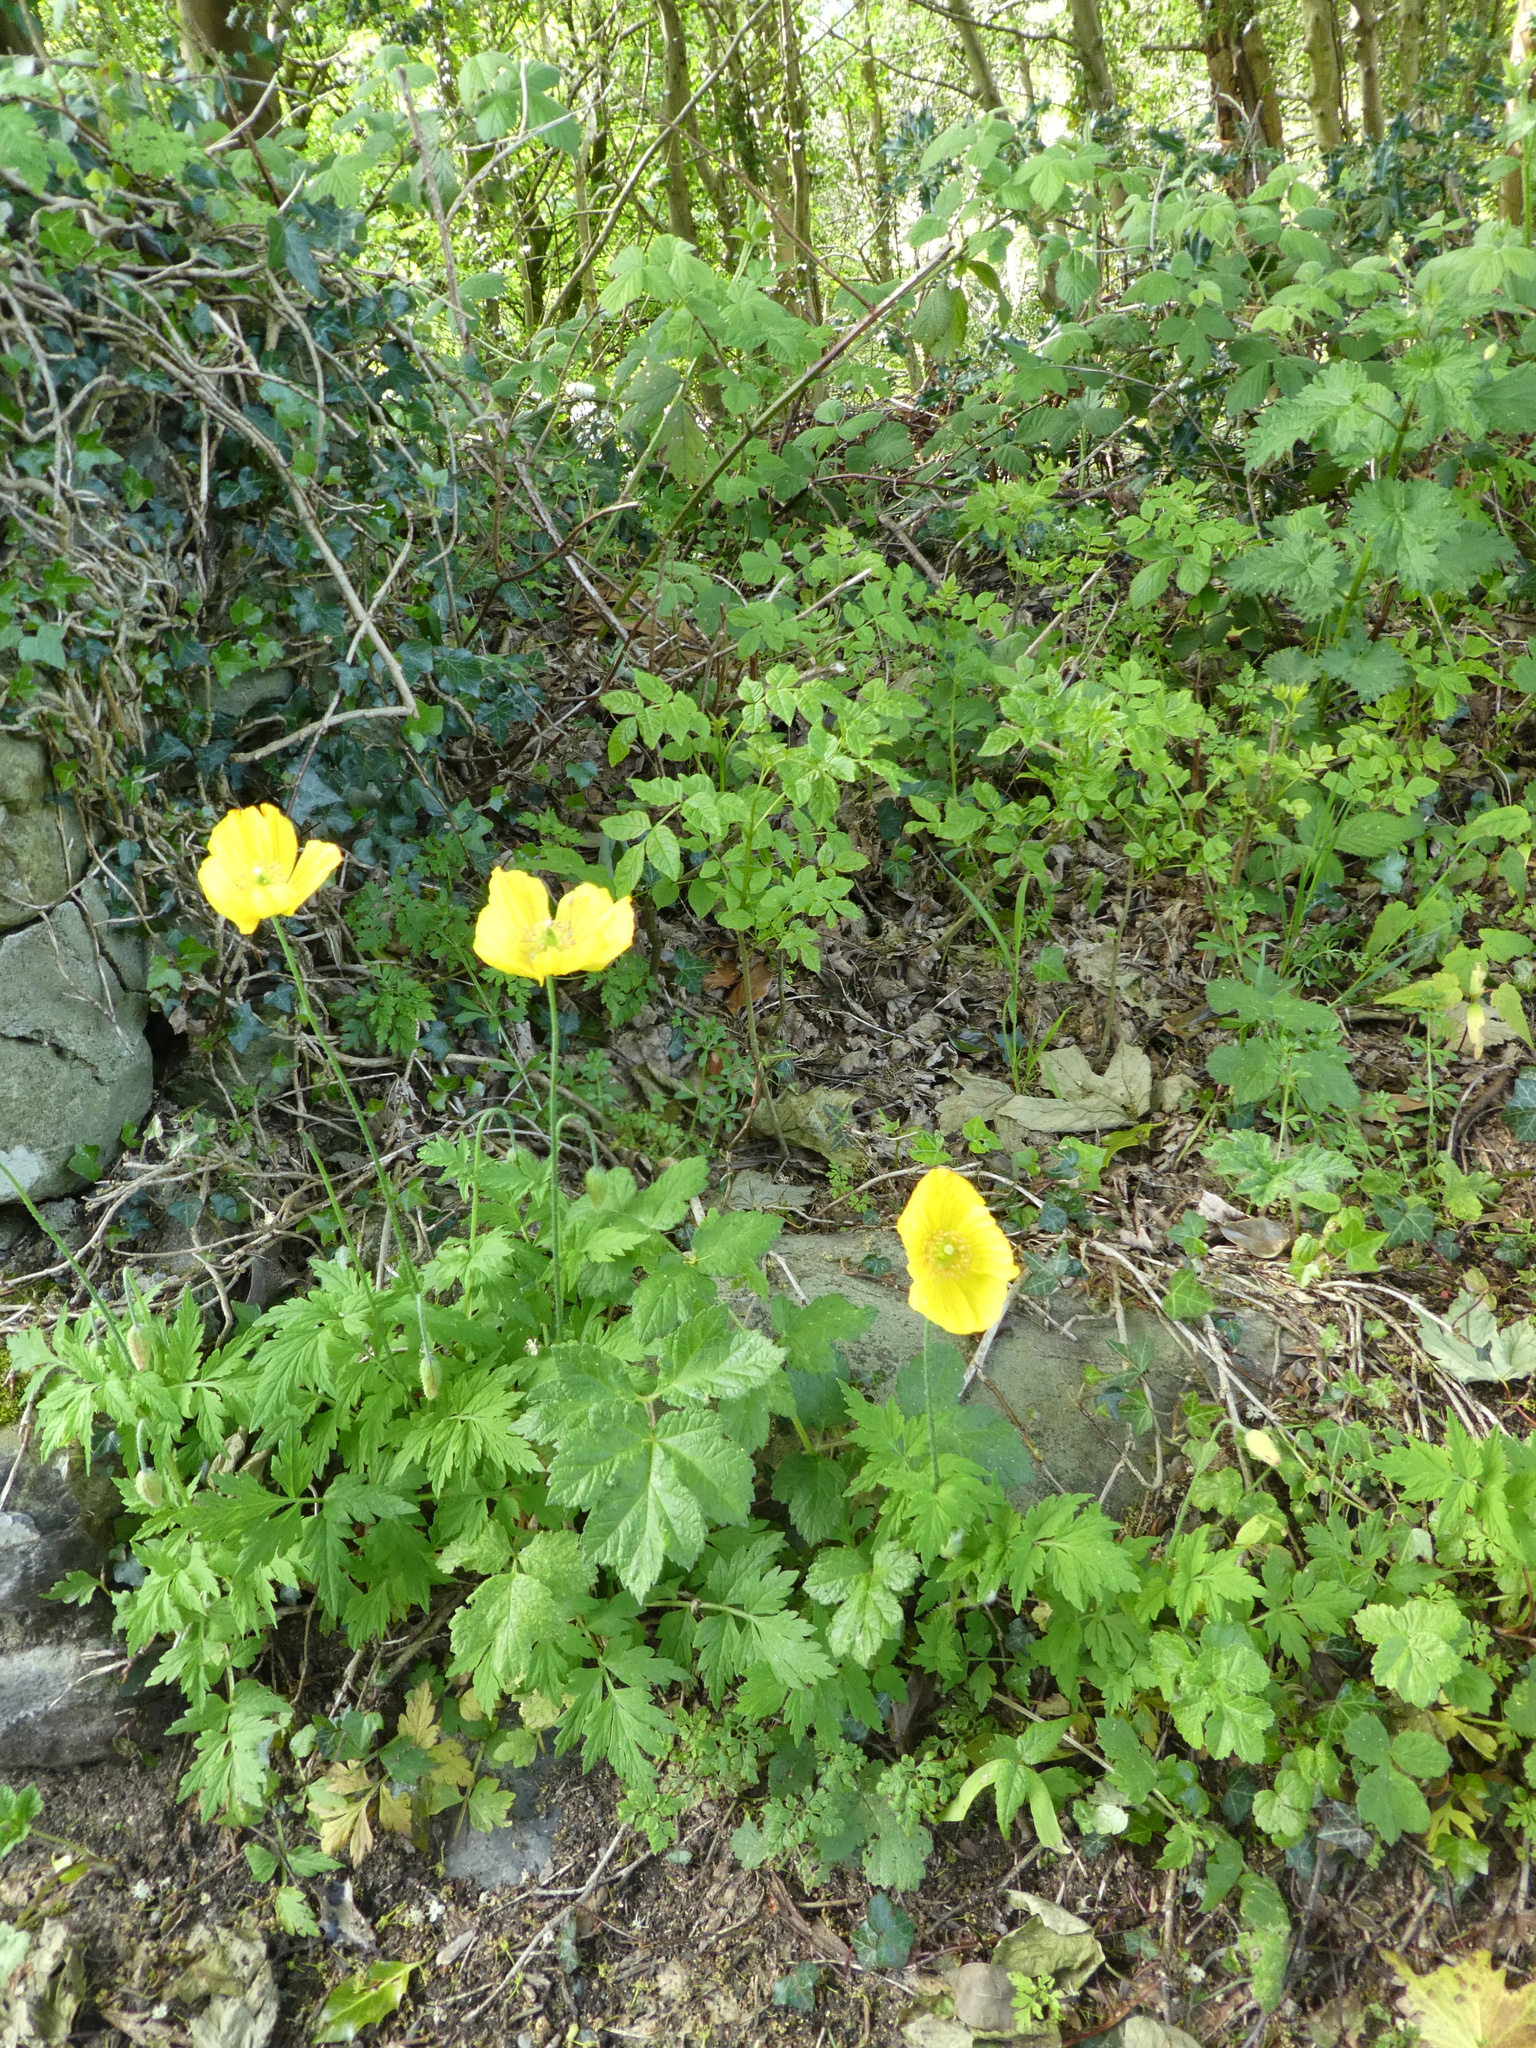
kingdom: Plantae
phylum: Tracheophyta
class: Magnoliopsida
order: Ranunculales
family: Papaveraceae
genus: Papaver
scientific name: Papaver cambricum
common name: Poppy
